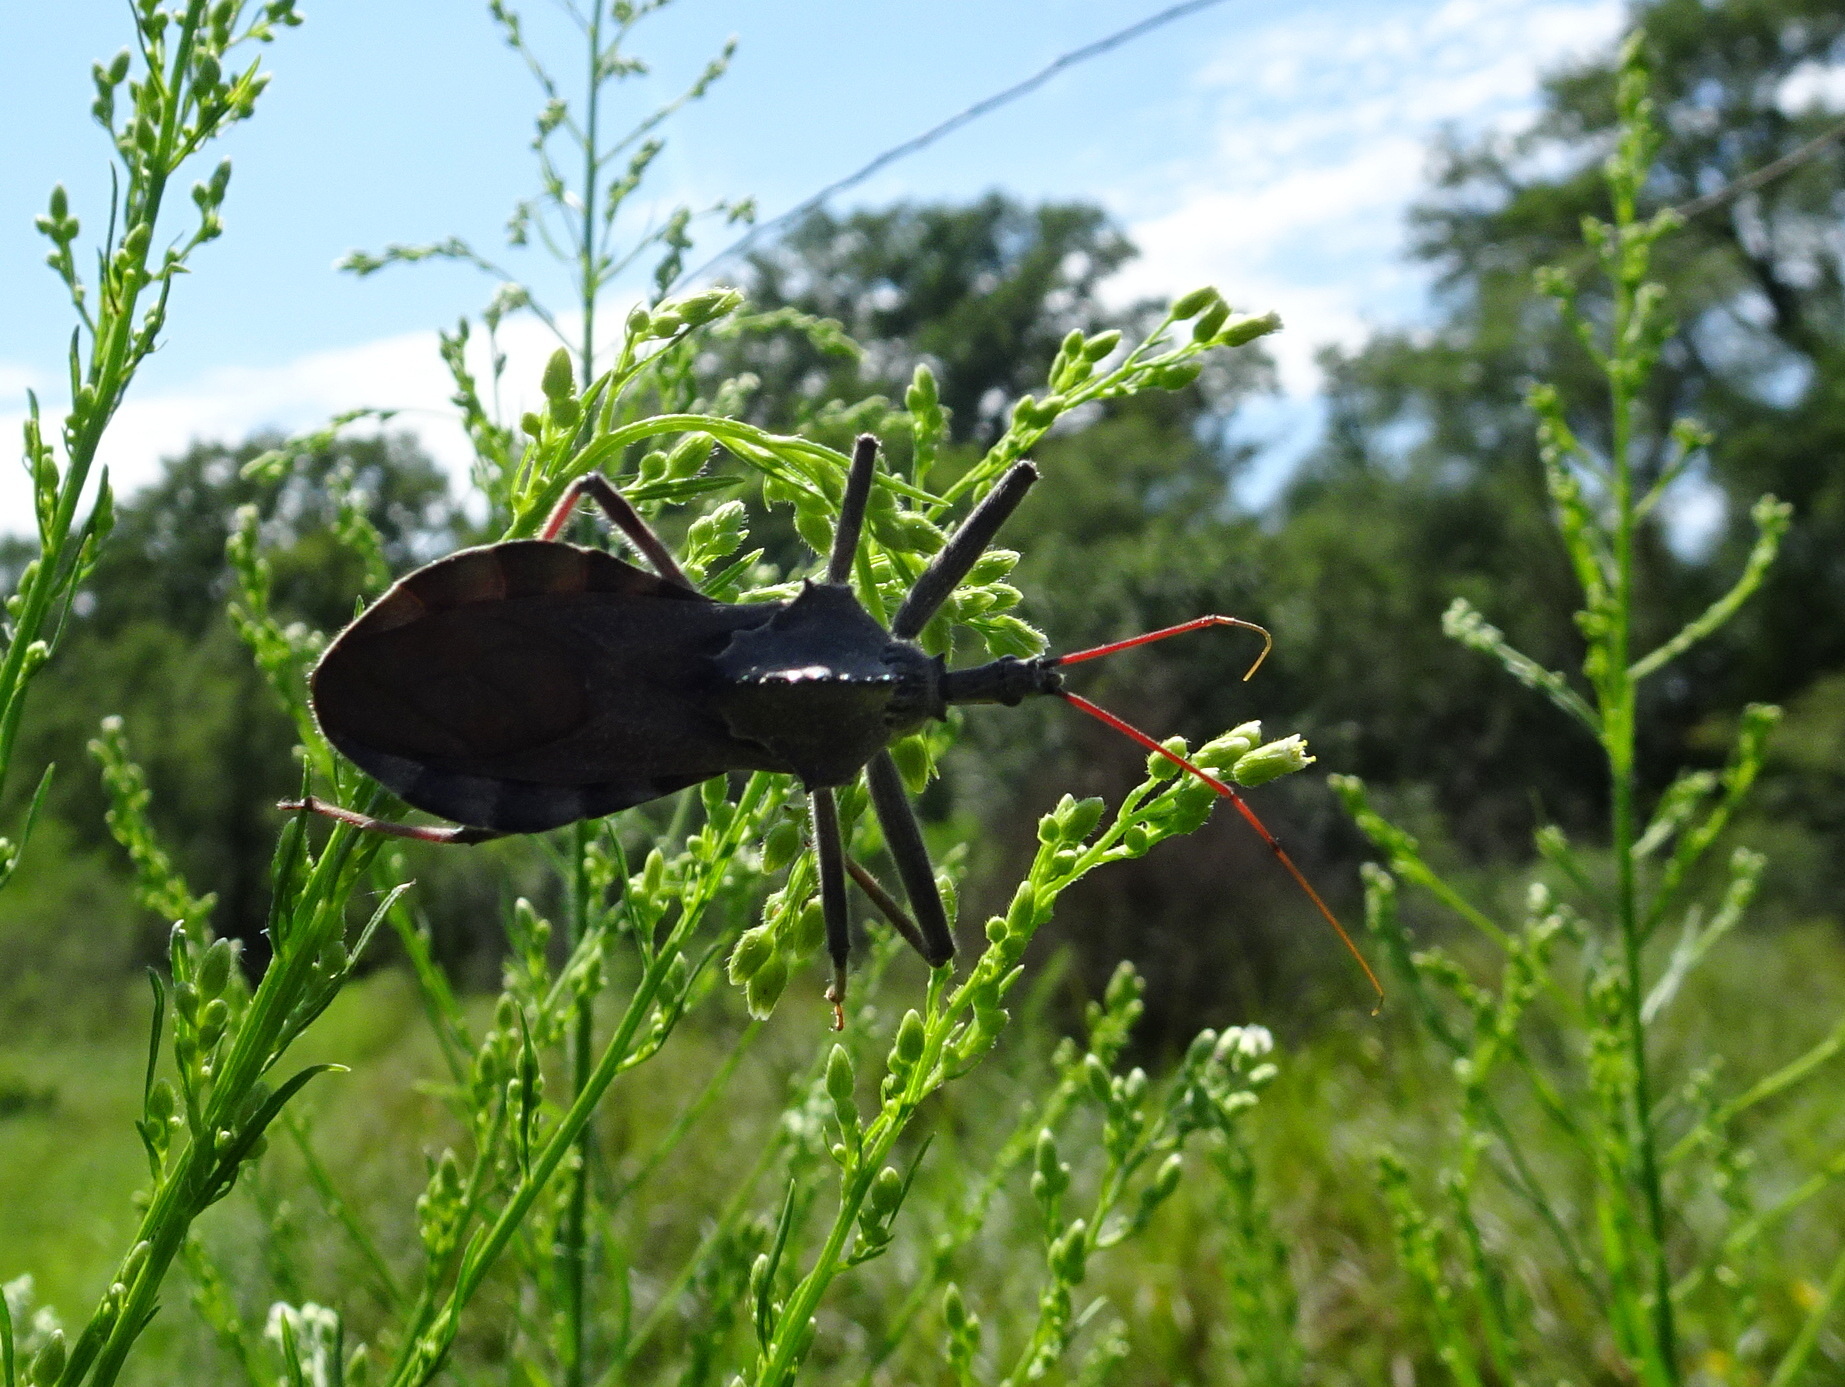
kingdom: Animalia
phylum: Arthropoda
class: Insecta
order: Hemiptera
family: Reduviidae
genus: Arilus
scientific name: Arilus cristatus
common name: North american wheel bug
